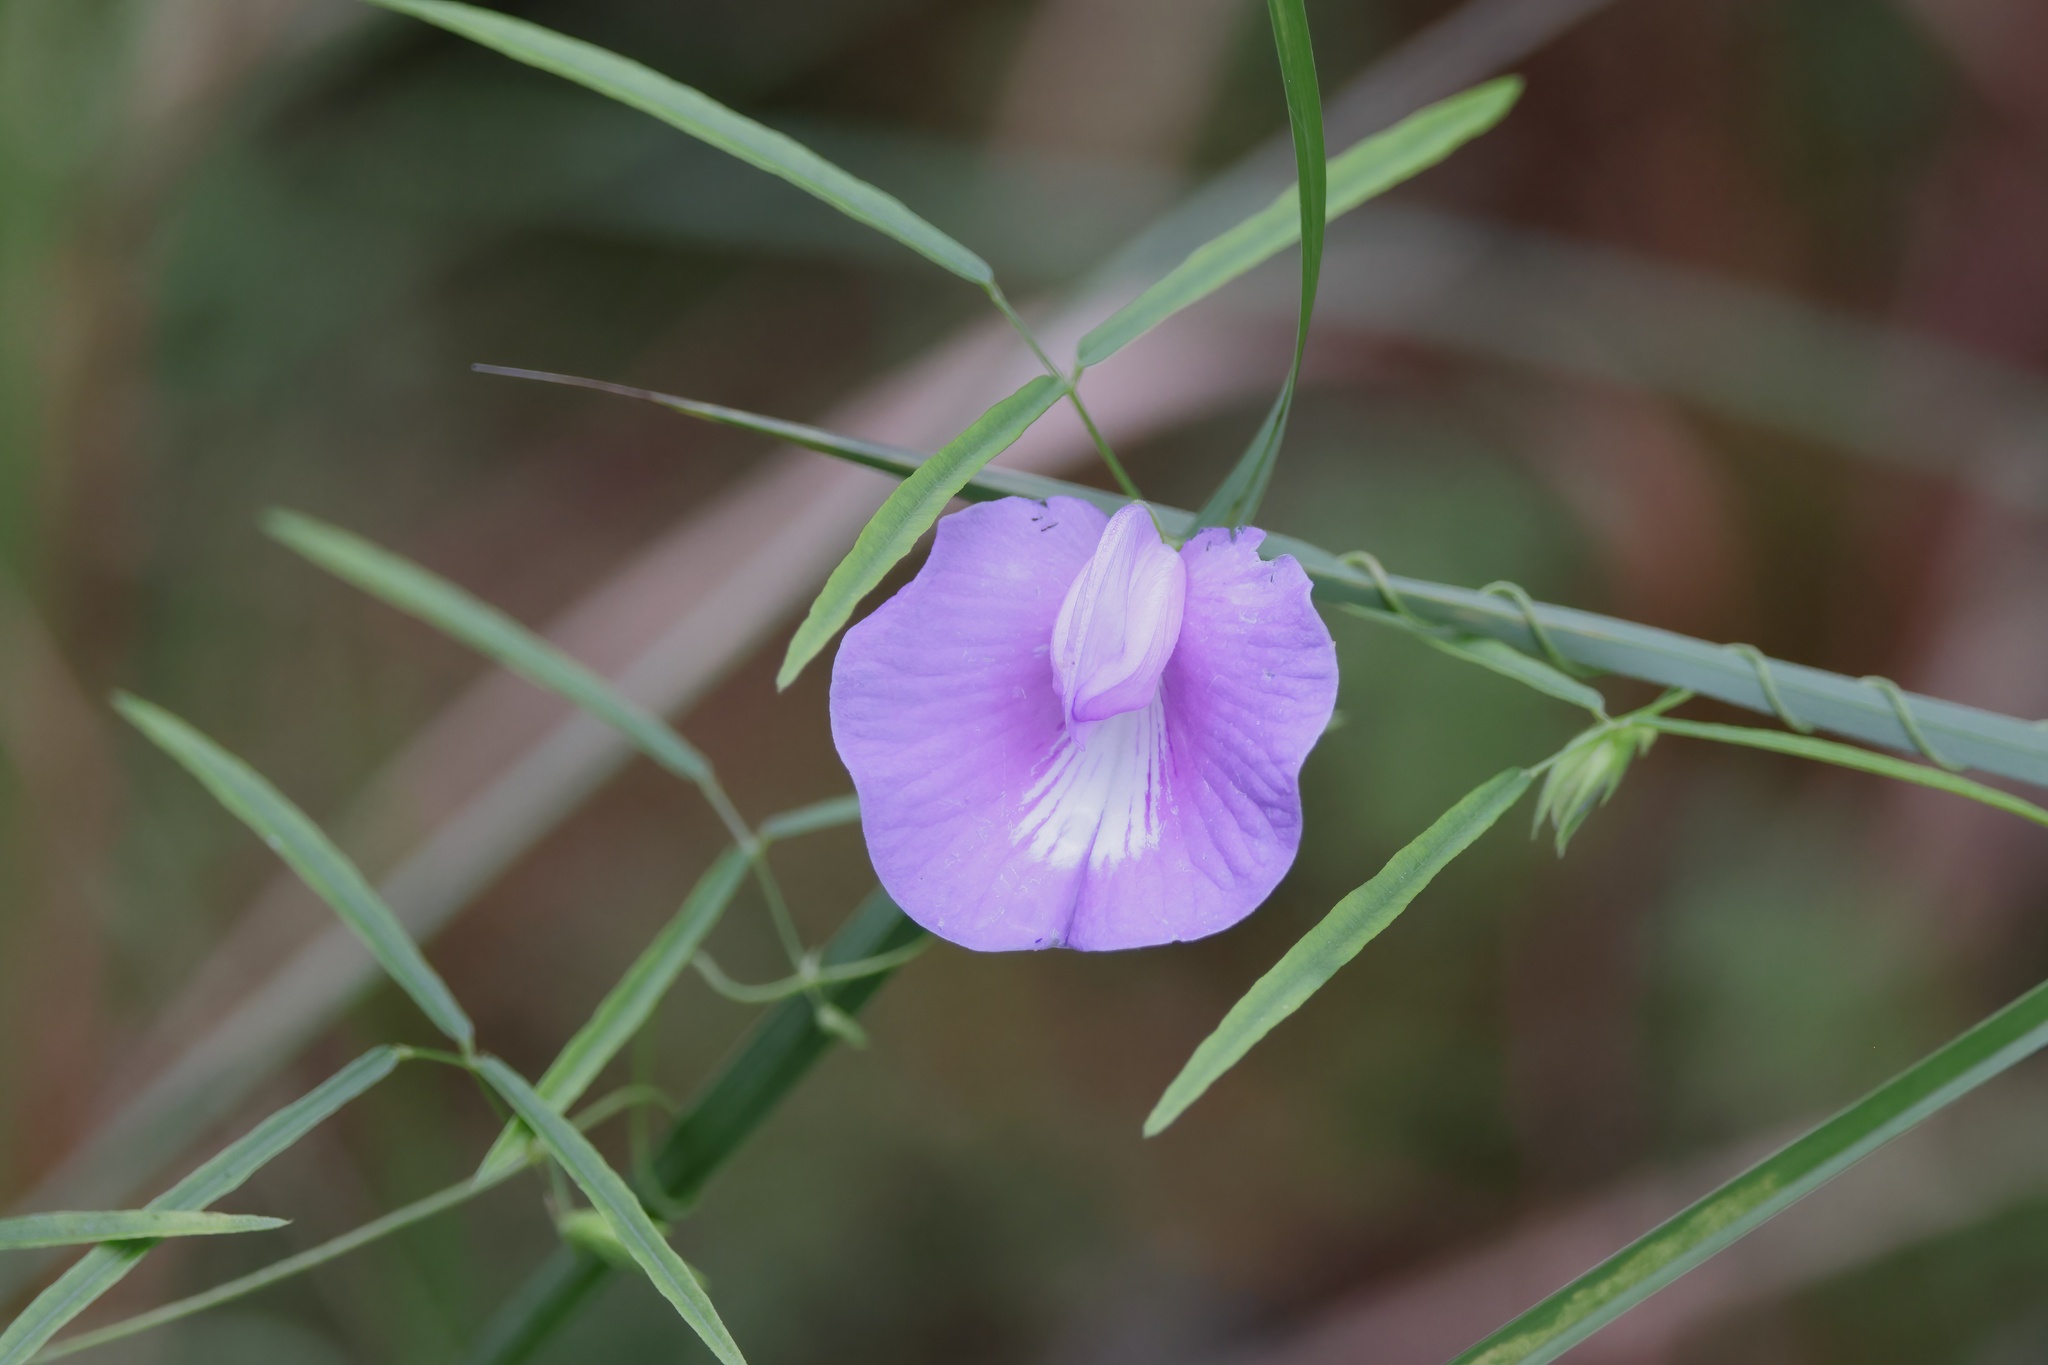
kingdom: Plantae
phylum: Tracheophyta
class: Magnoliopsida
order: Fabales
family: Fabaceae
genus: Centrosema
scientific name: Centrosema virginianum
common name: Butterfly-pea
